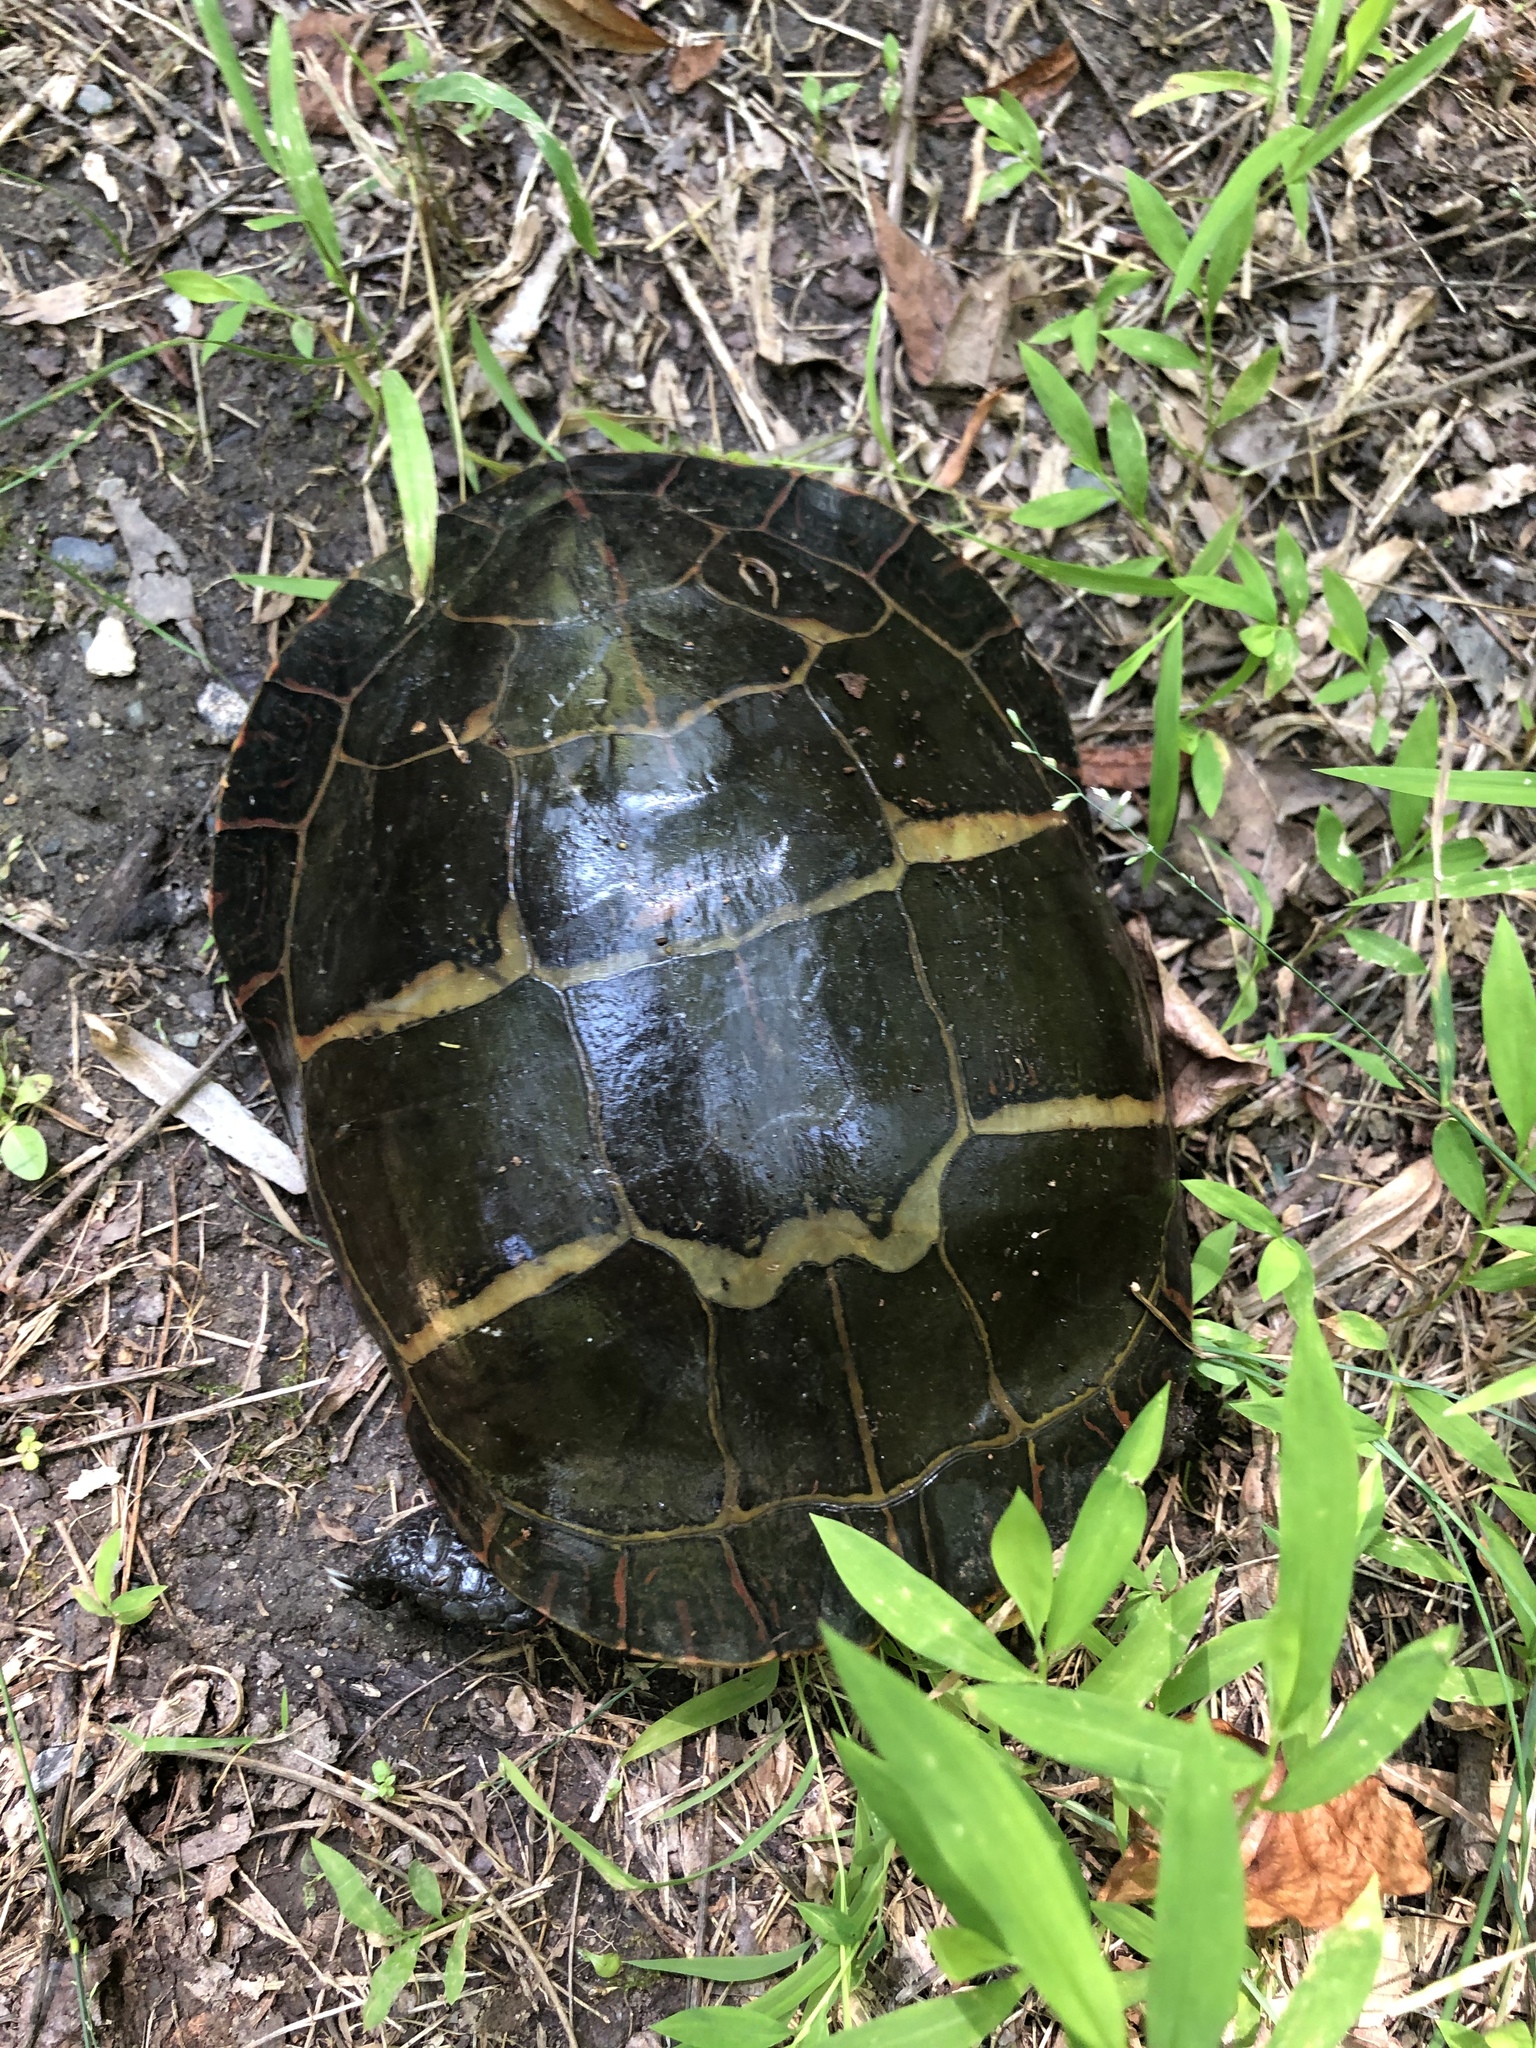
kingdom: Animalia
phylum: Chordata
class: Testudines
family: Emydidae
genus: Chrysemys
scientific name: Chrysemys picta
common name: Painted turtle
